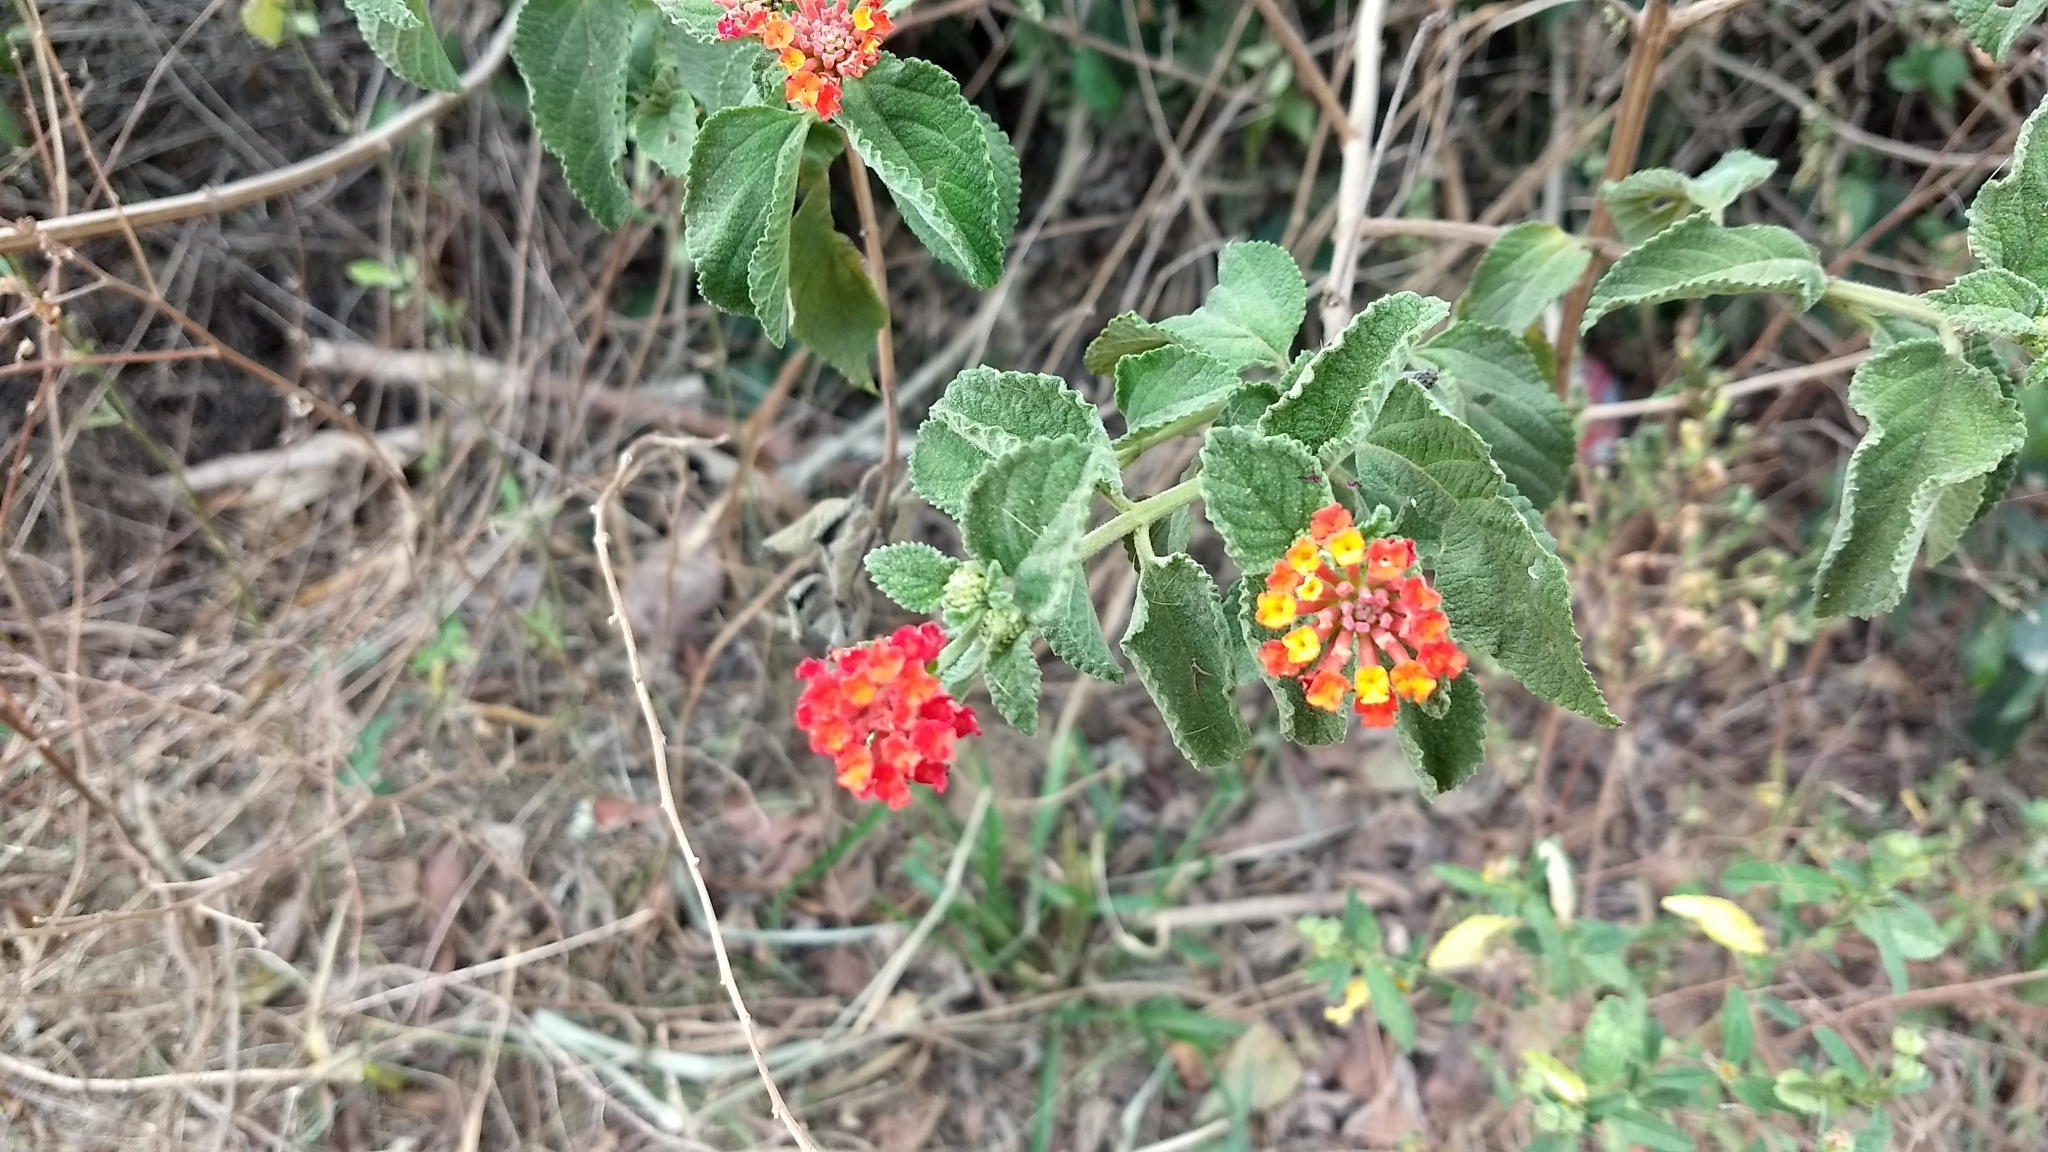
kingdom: Plantae
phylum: Tracheophyta
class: Magnoliopsida
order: Lamiales
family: Verbenaceae
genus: Lantana
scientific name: Lantana camara
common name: Lantana
